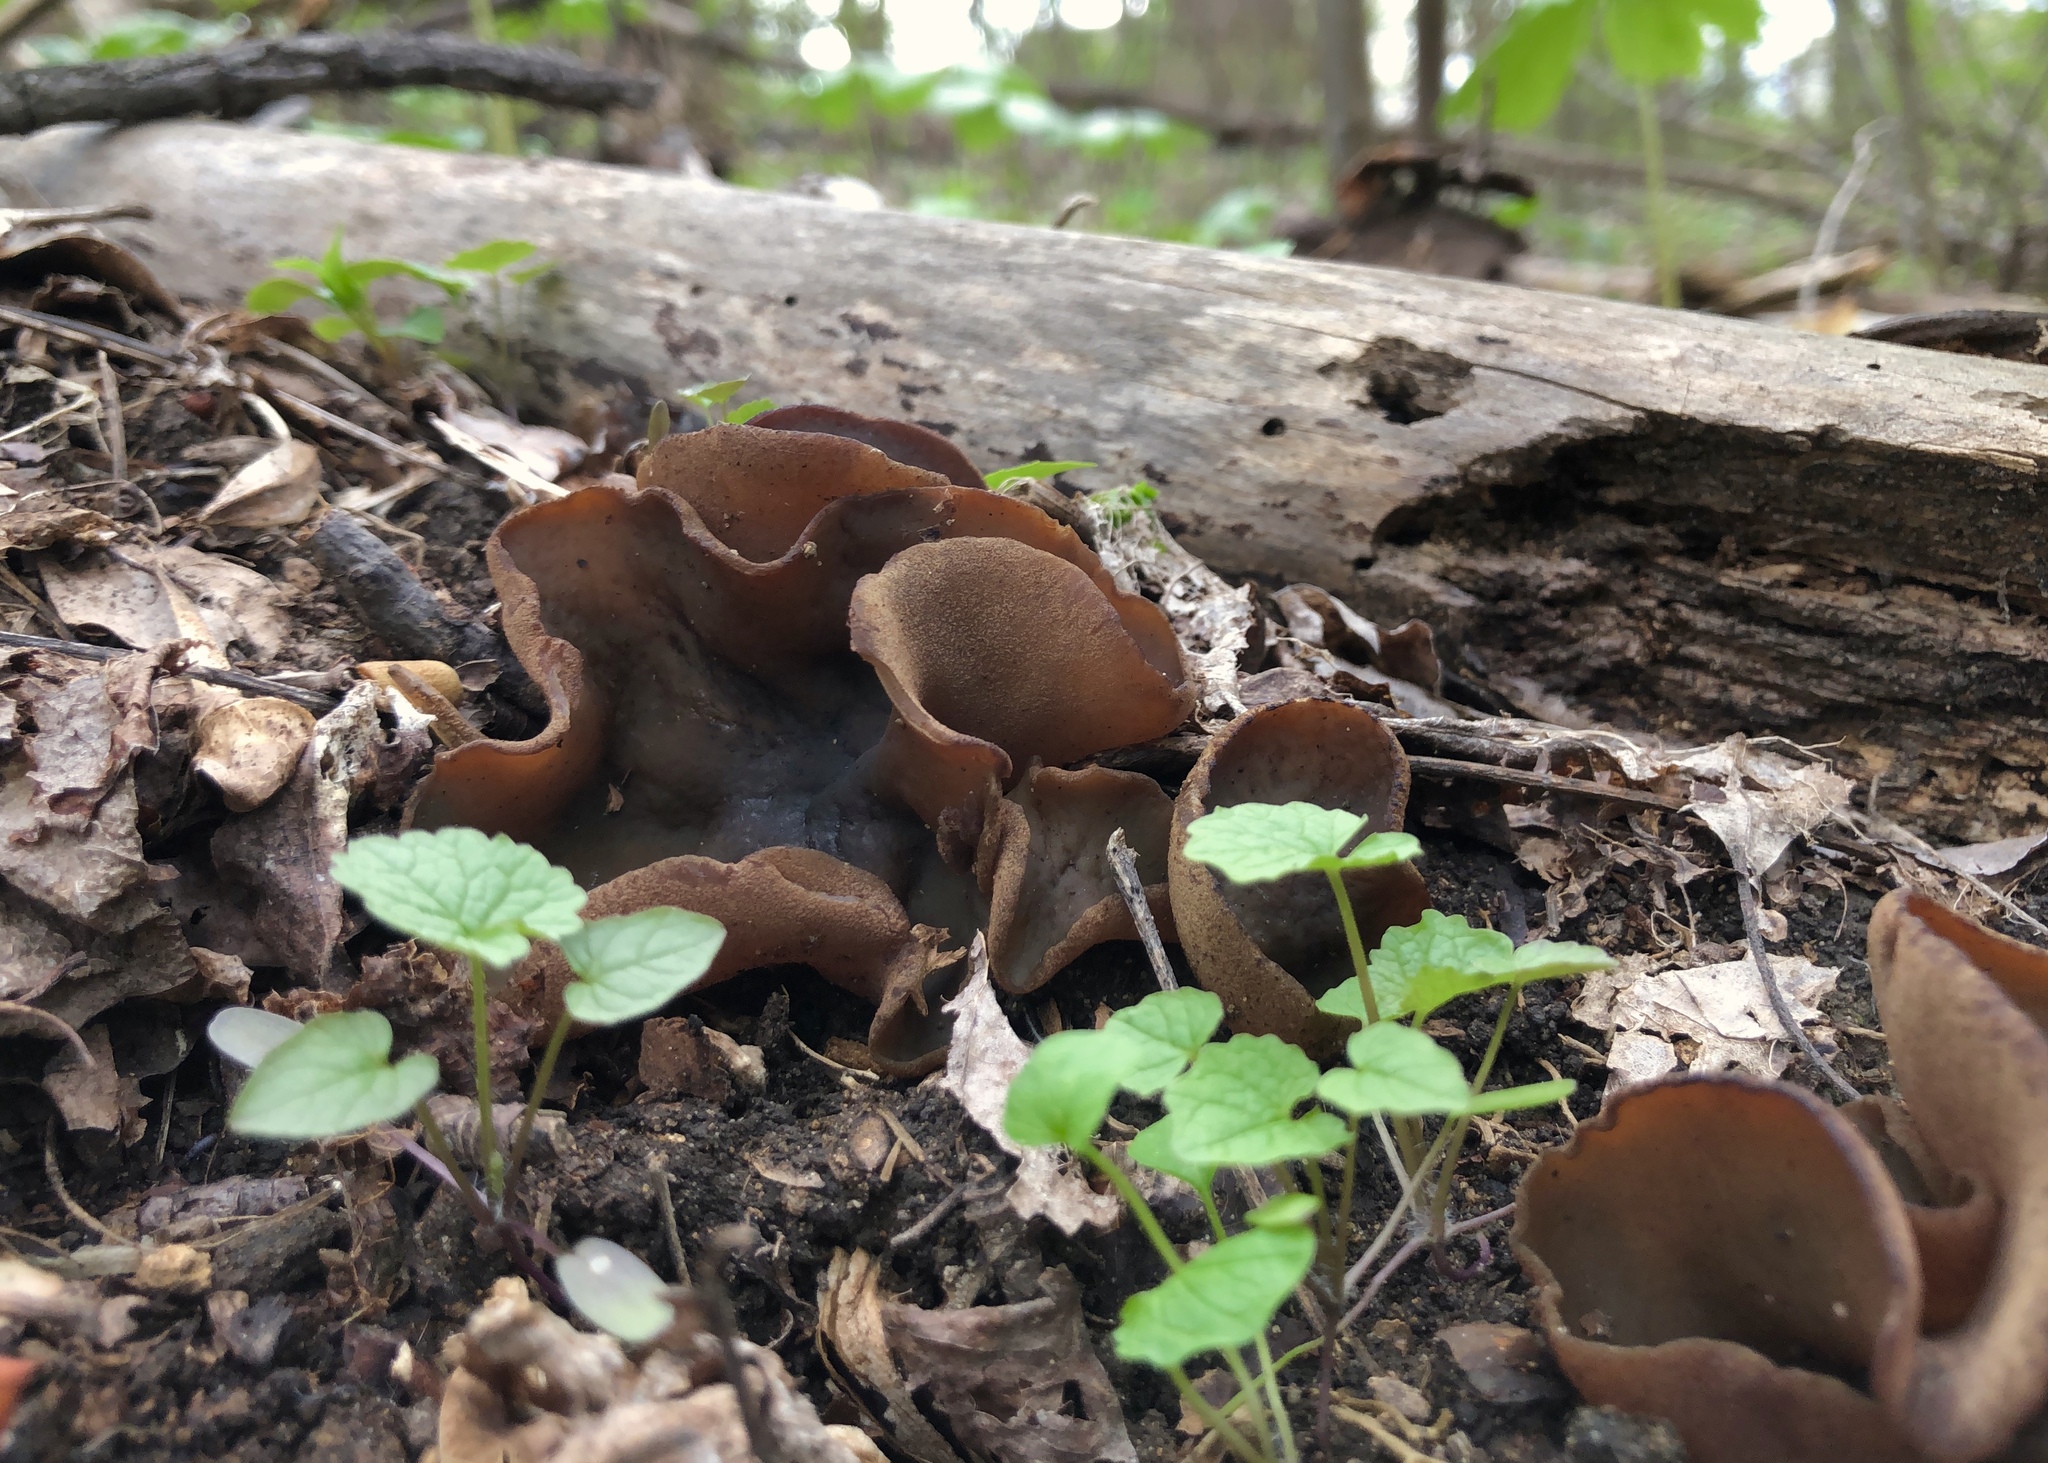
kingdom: Fungi
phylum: Ascomycota
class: Pezizomycetes
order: Pezizales
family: Pezizaceae
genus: Phylloscypha
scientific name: Phylloscypha phyllogena
